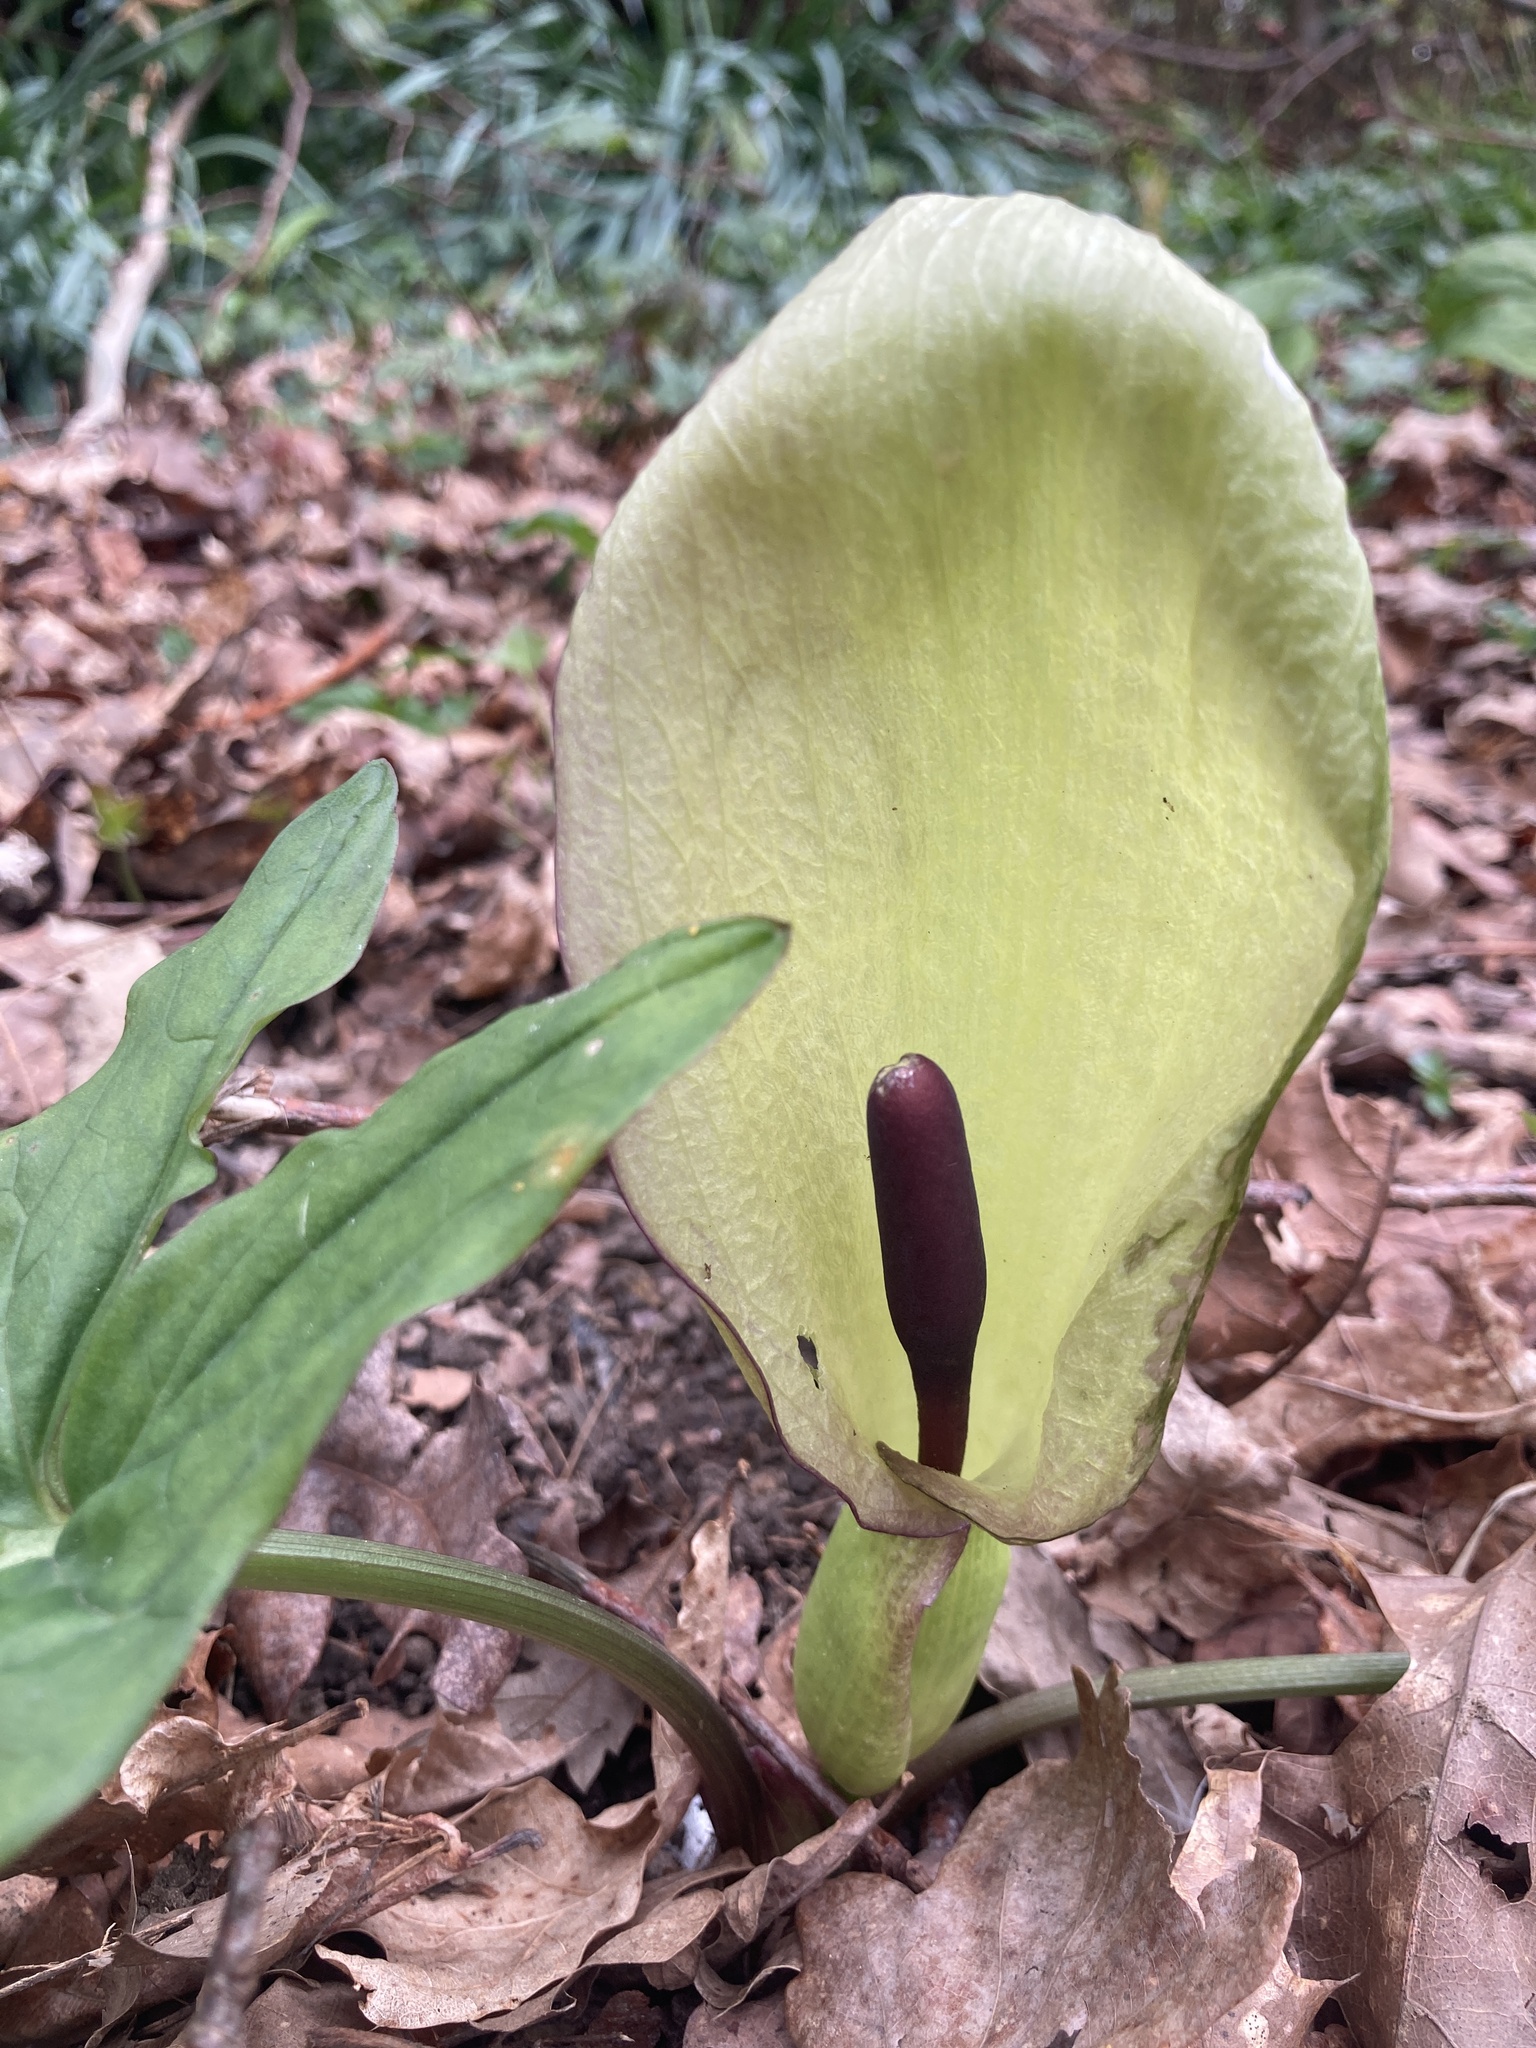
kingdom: Plantae
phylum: Tracheophyta
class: Liliopsida
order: Alismatales
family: Araceae
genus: Arum
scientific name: Arum maculatum
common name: Lords-and-ladies
